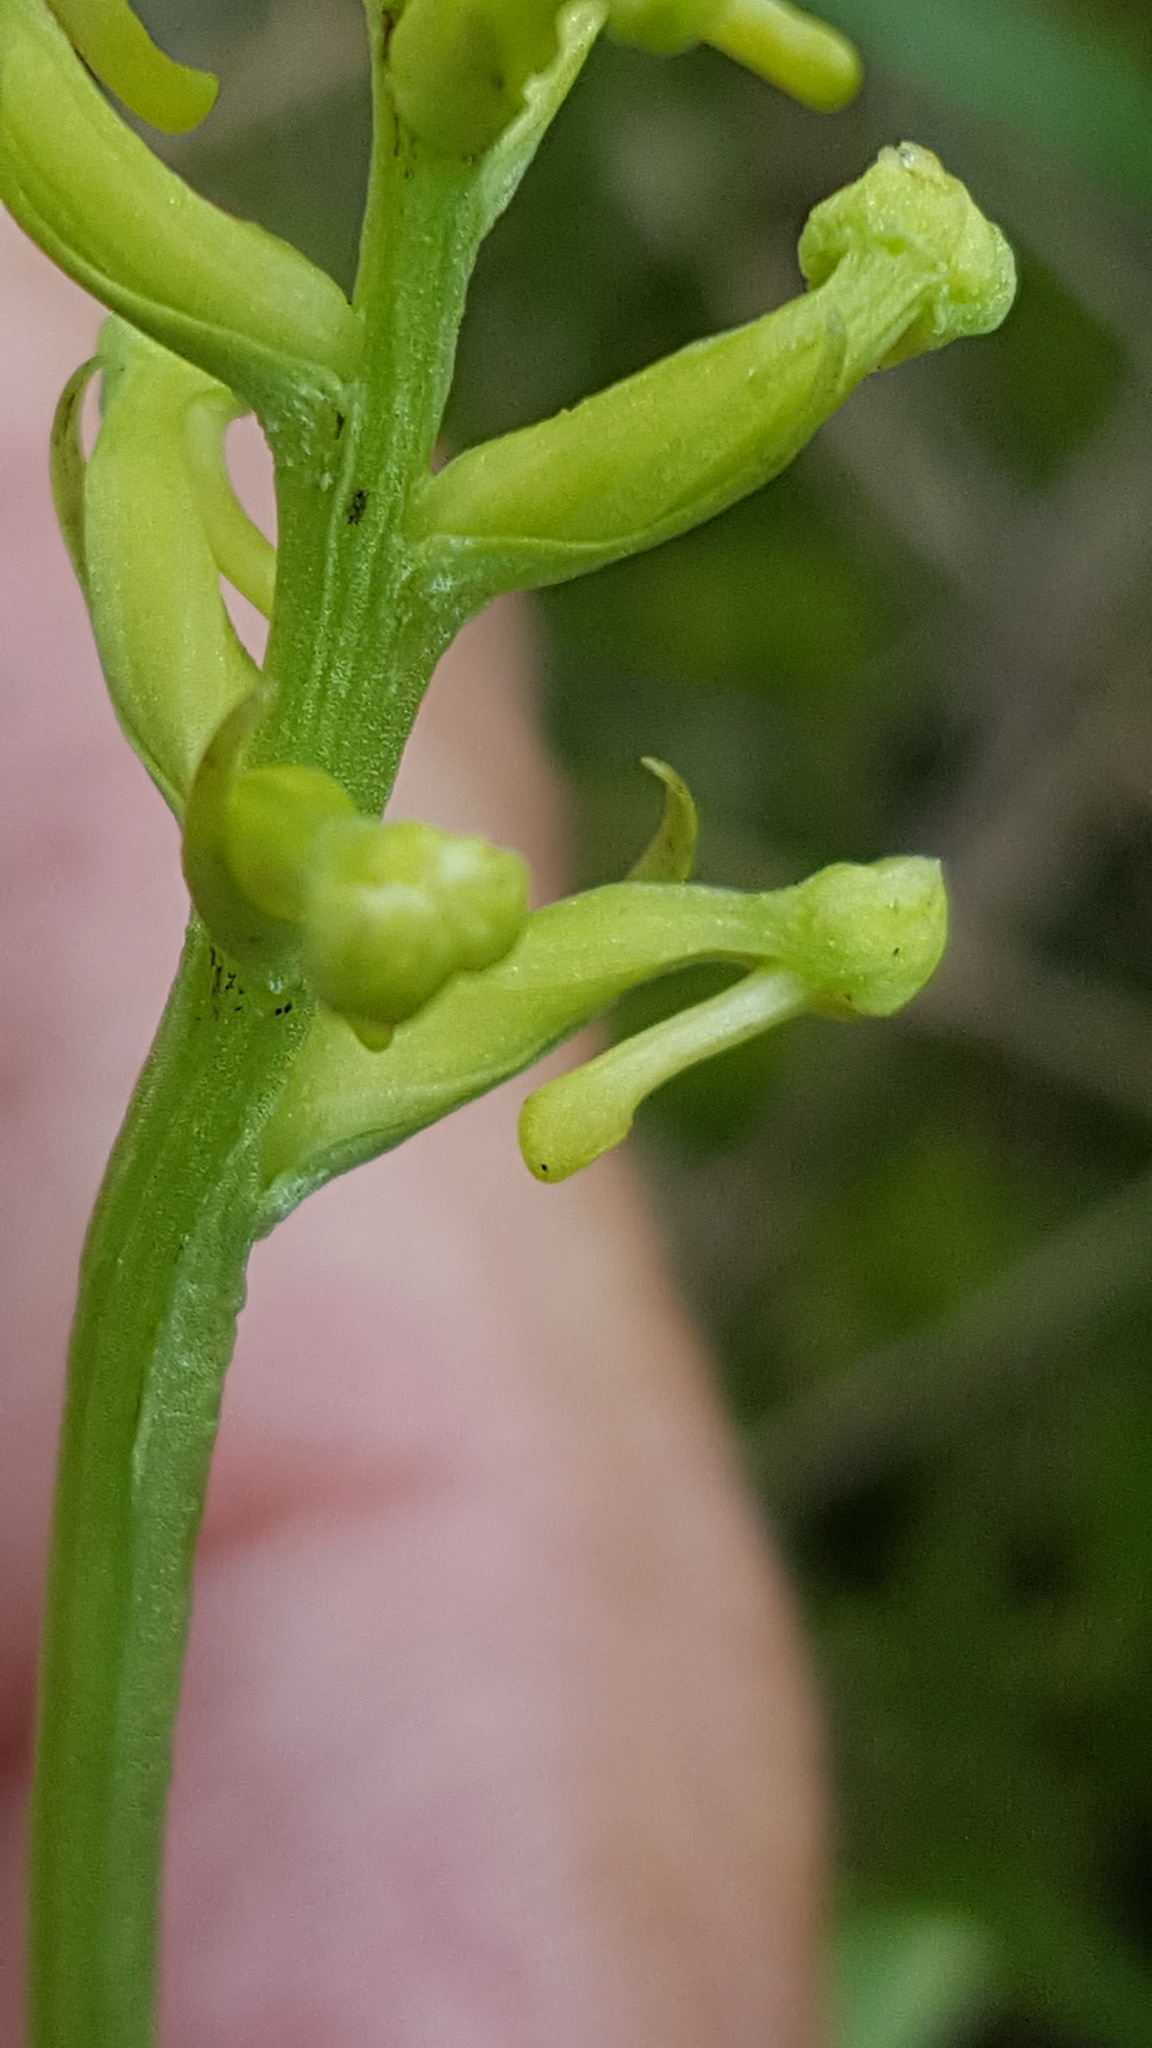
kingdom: Plantae
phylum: Tracheophyta
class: Liliopsida
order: Asparagales
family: Orchidaceae
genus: Platanthera
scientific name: Platanthera clavellata
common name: Club-spur orchid
